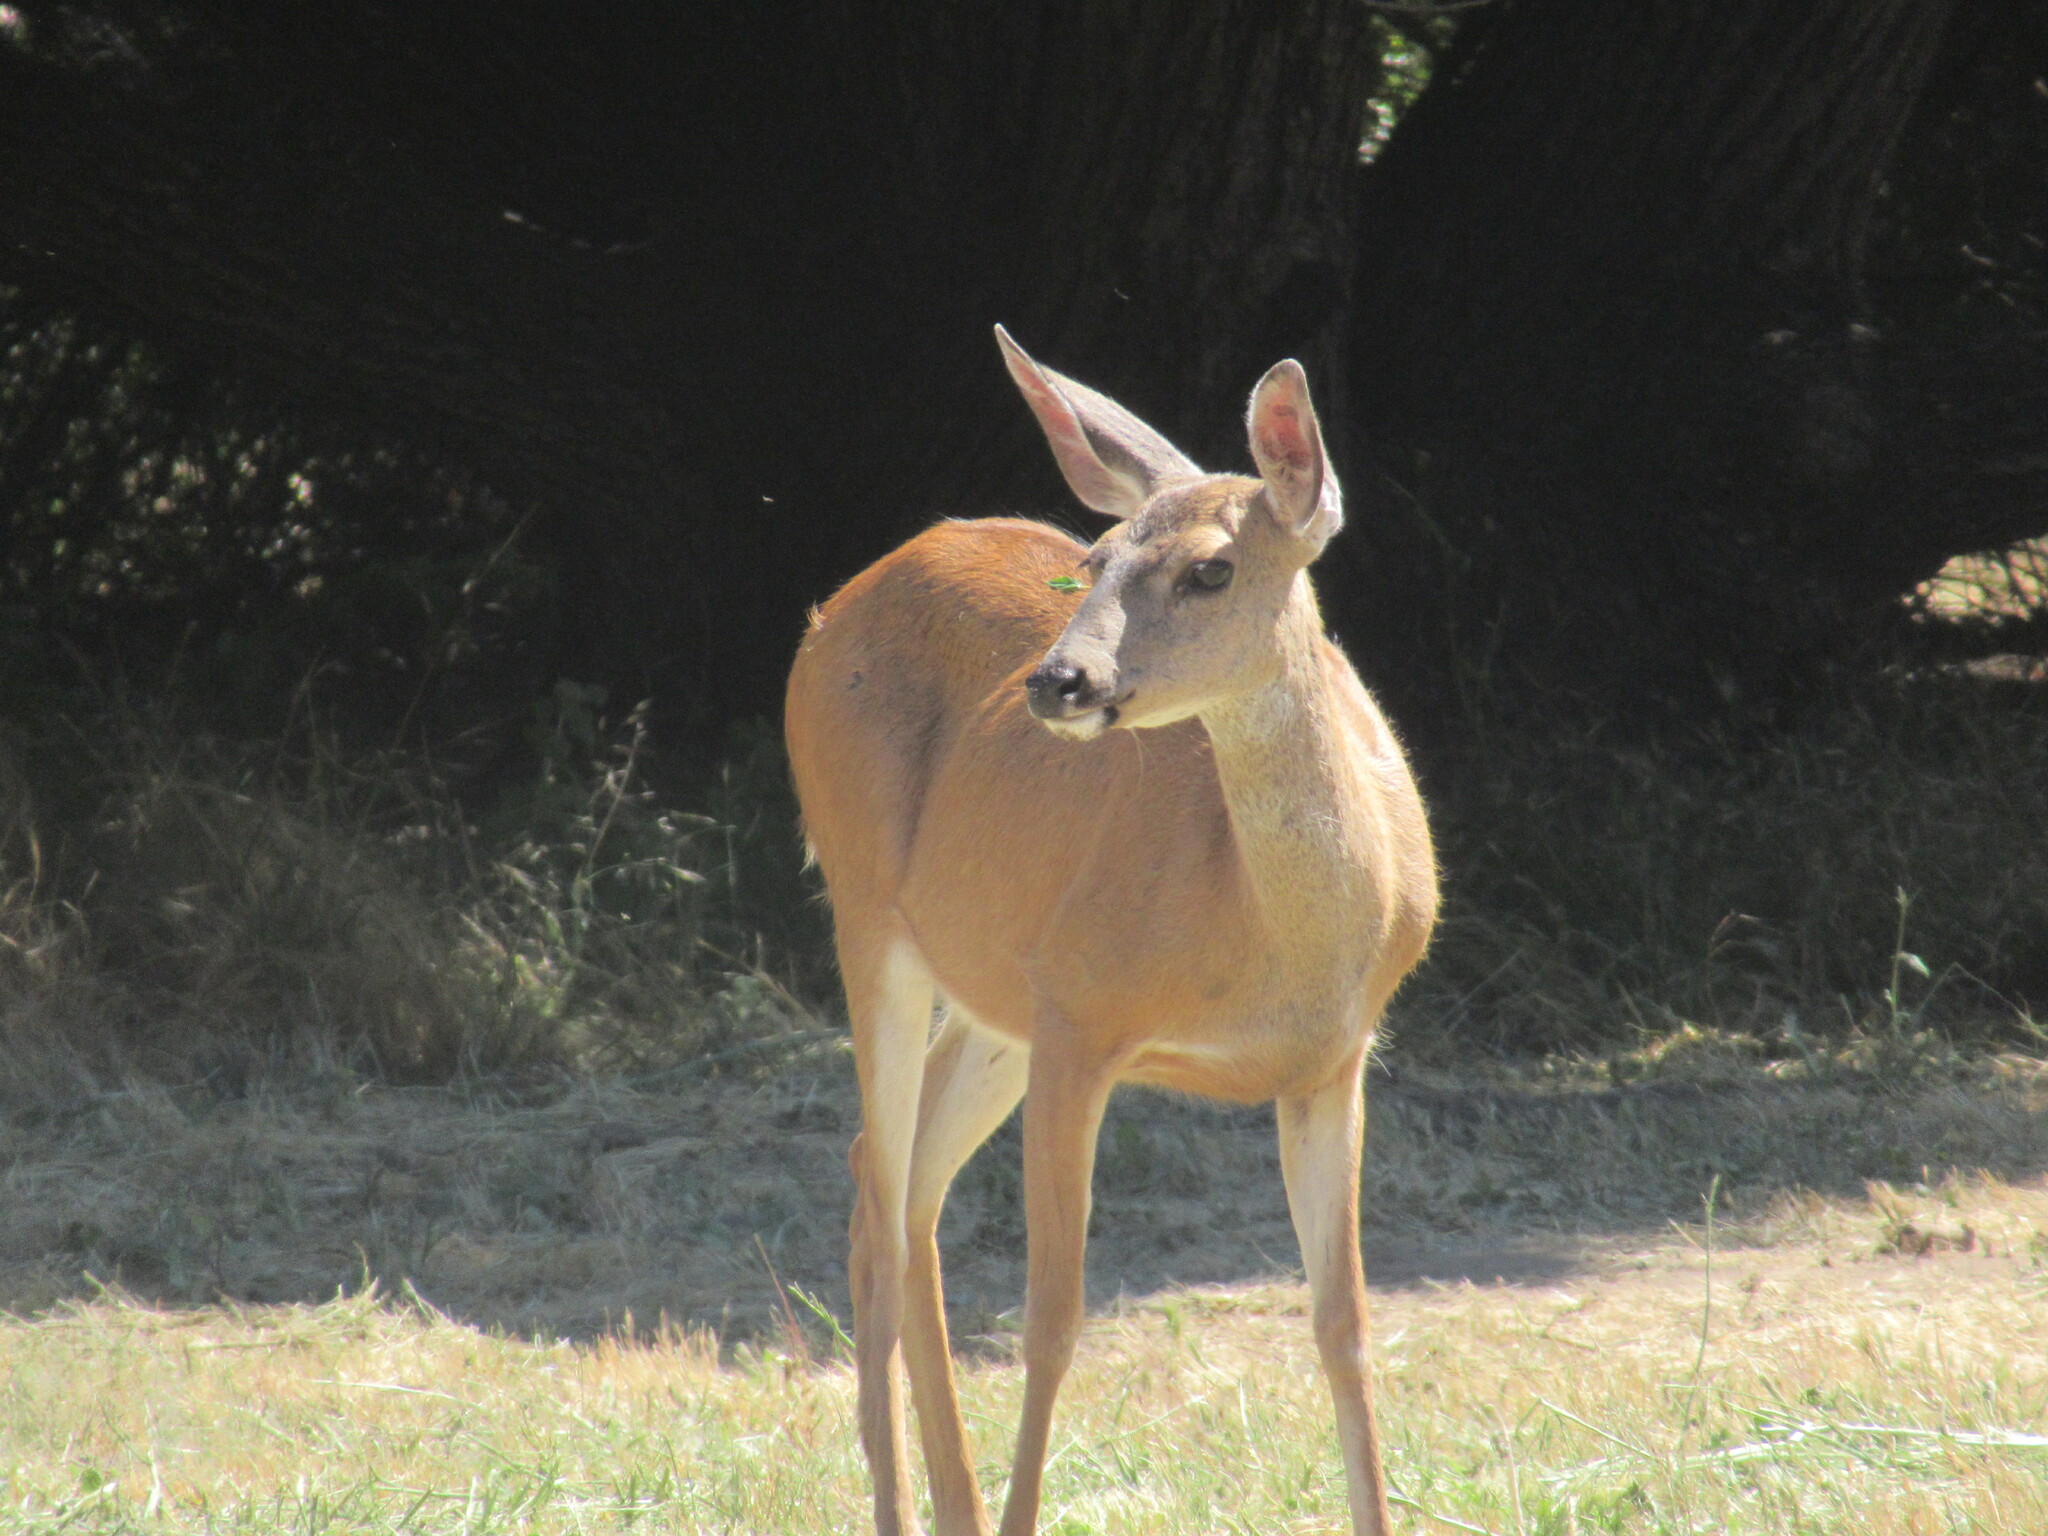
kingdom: Animalia
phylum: Chordata
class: Mammalia
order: Artiodactyla
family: Cervidae
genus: Odocoileus
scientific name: Odocoileus hemionus
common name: Mule deer
